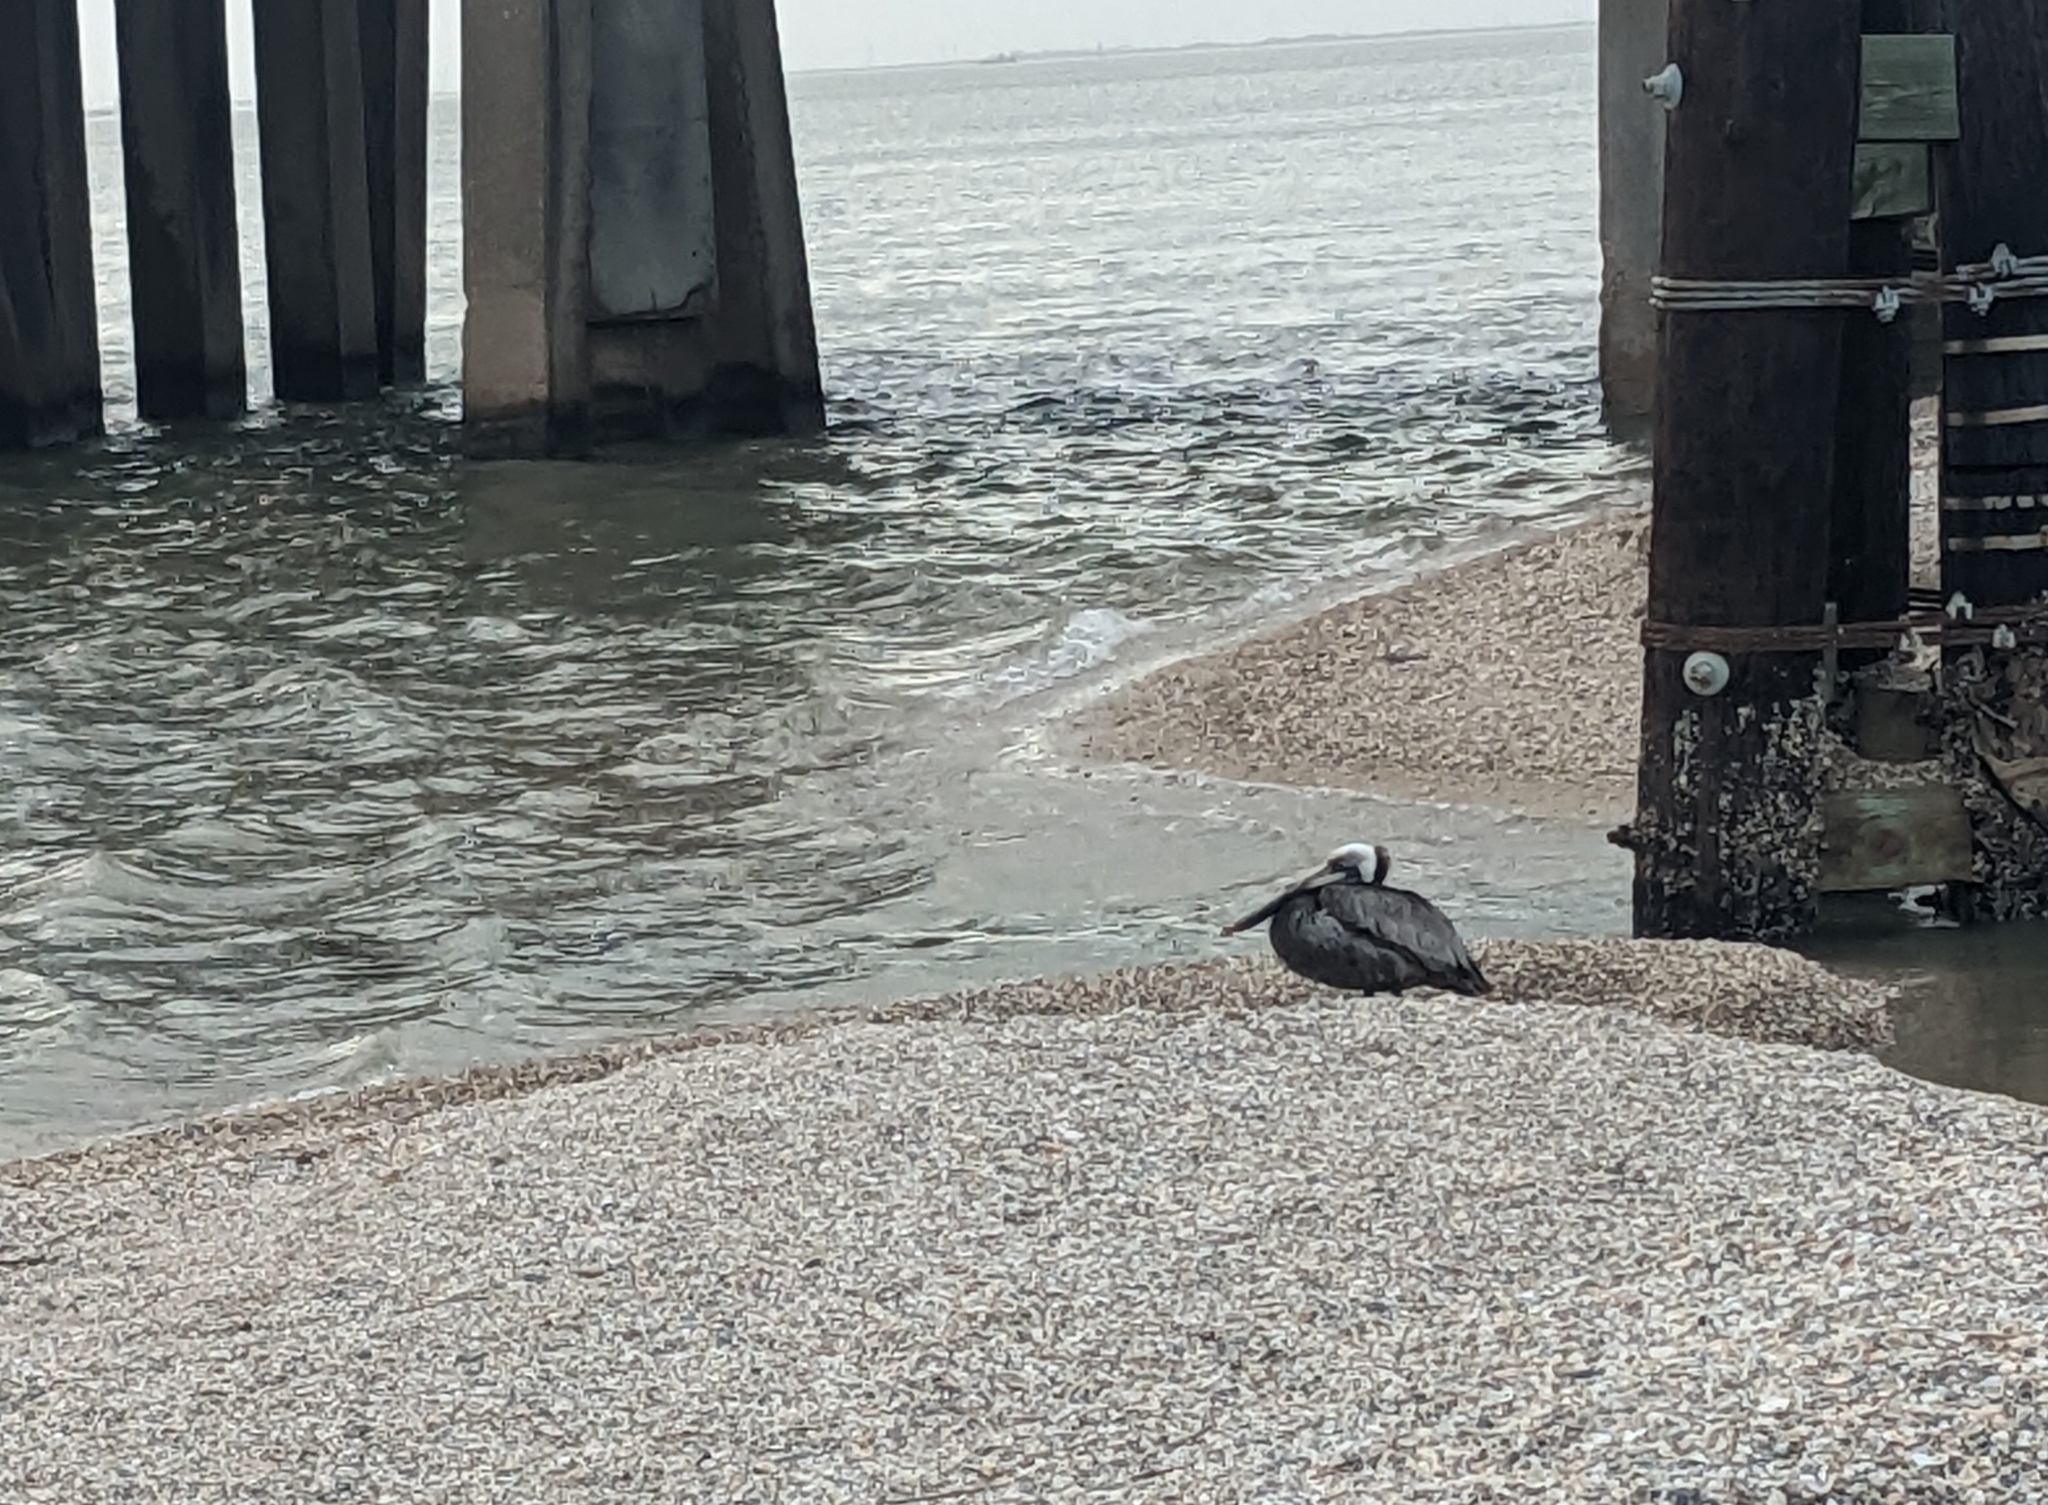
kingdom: Animalia
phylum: Chordata
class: Aves
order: Pelecaniformes
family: Pelecanidae
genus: Pelecanus
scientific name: Pelecanus occidentalis
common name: Brown pelican
